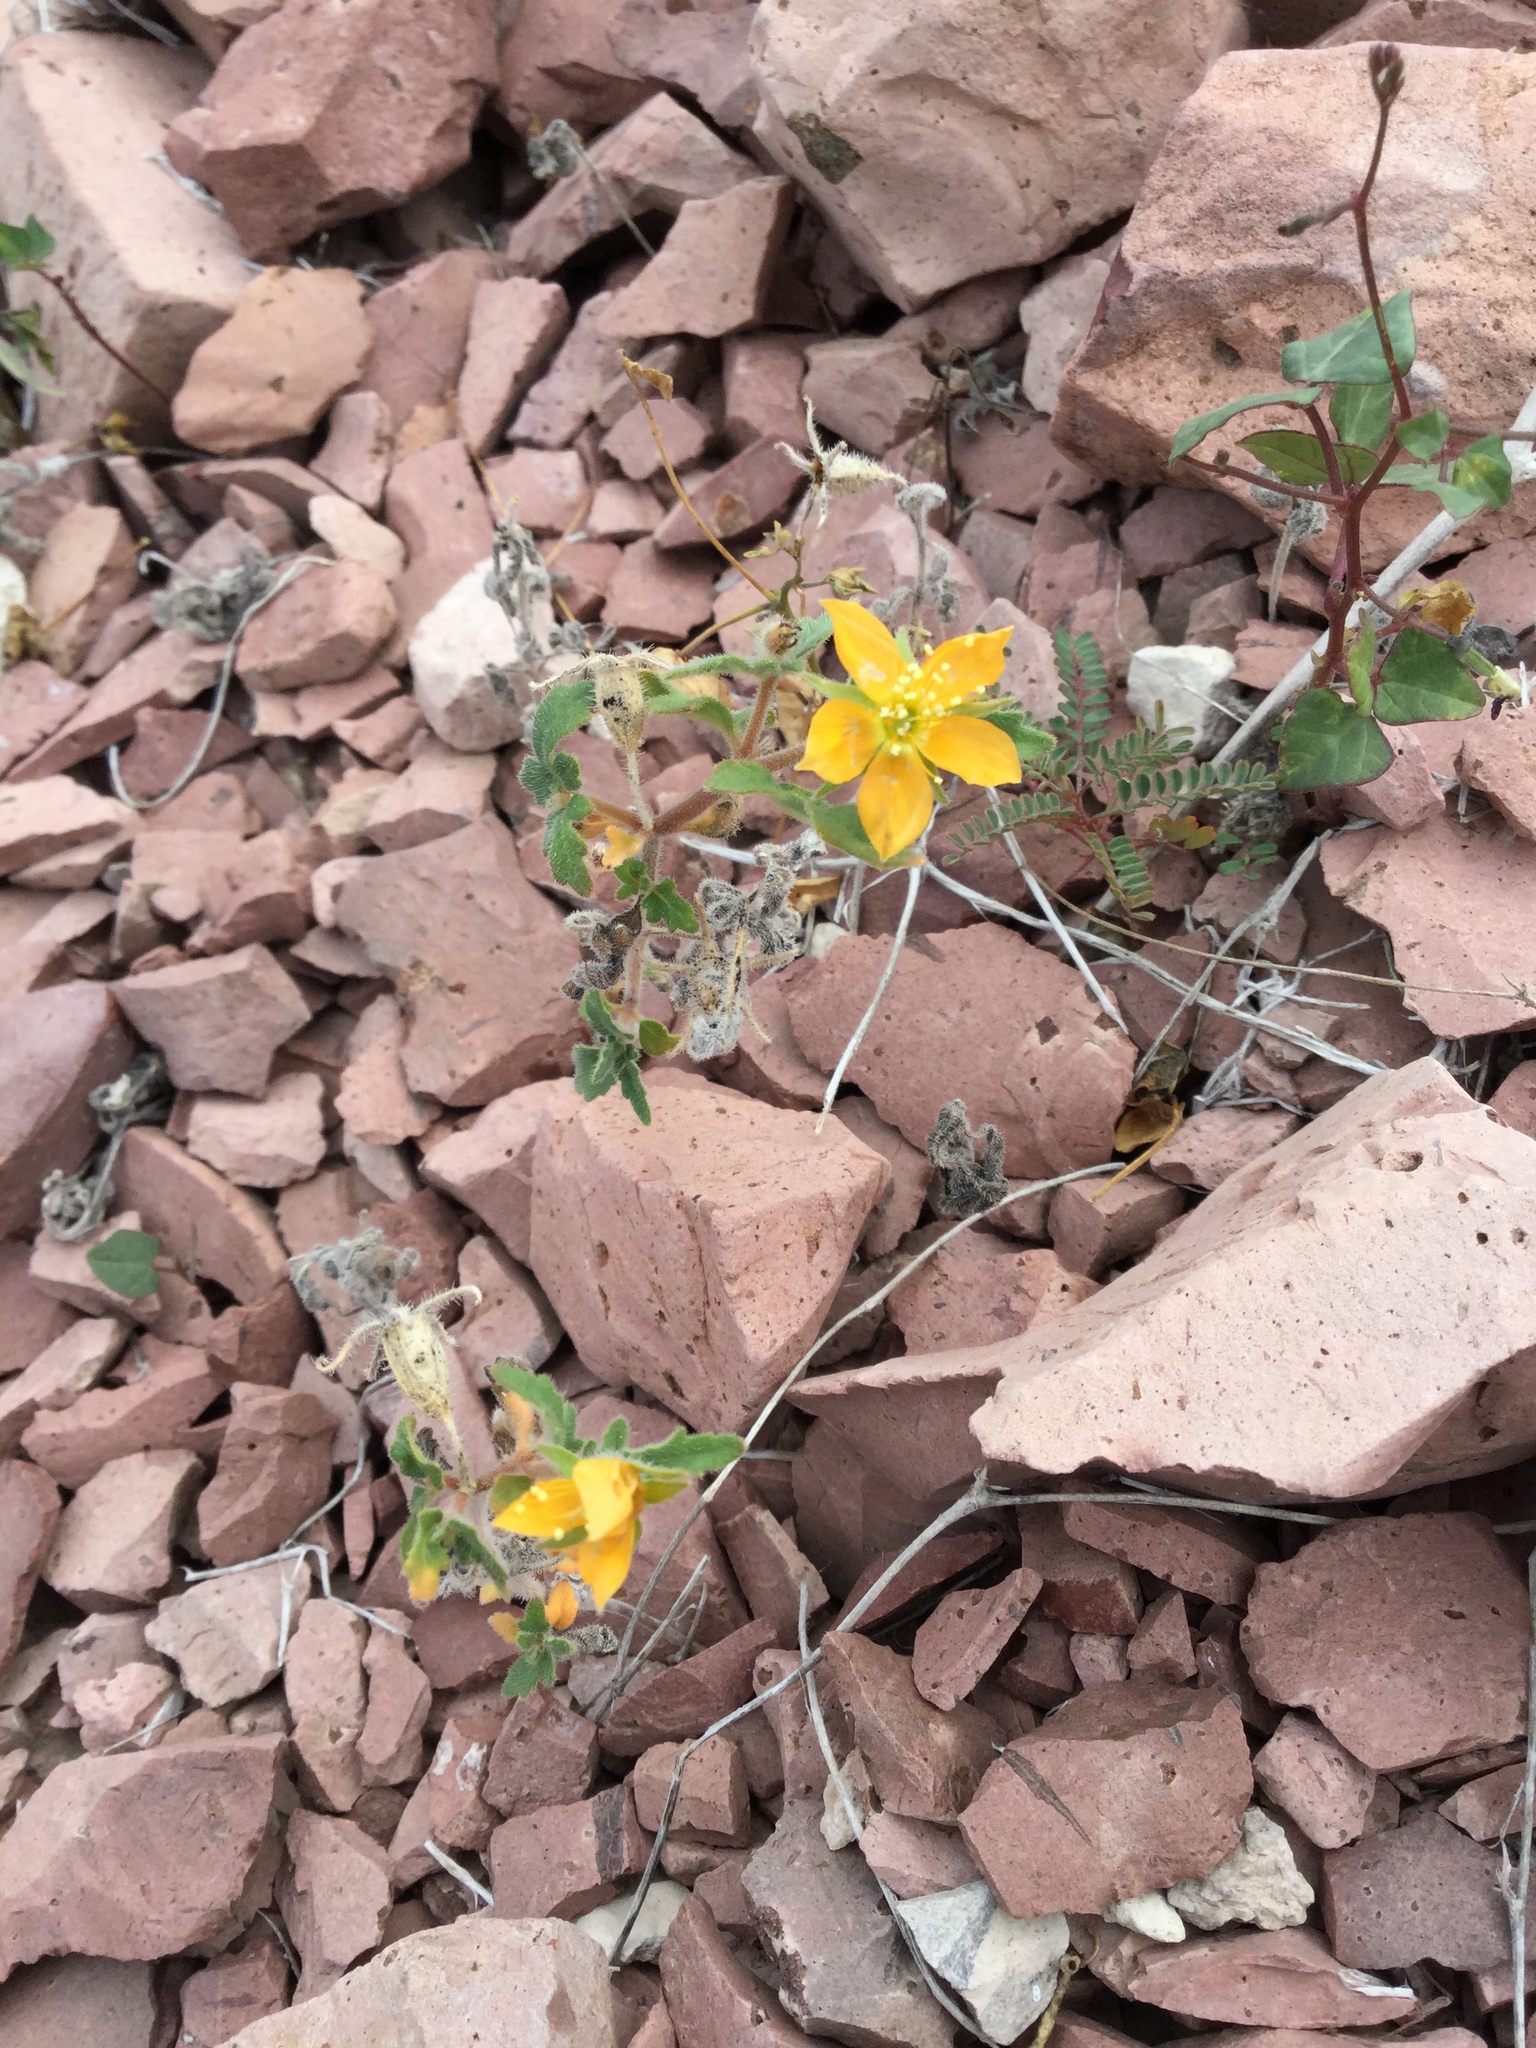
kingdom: Plantae
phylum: Tracheophyta
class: Magnoliopsida
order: Cornales
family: Loasaceae
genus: Mentzelia
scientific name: Mentzelia adhaerens
